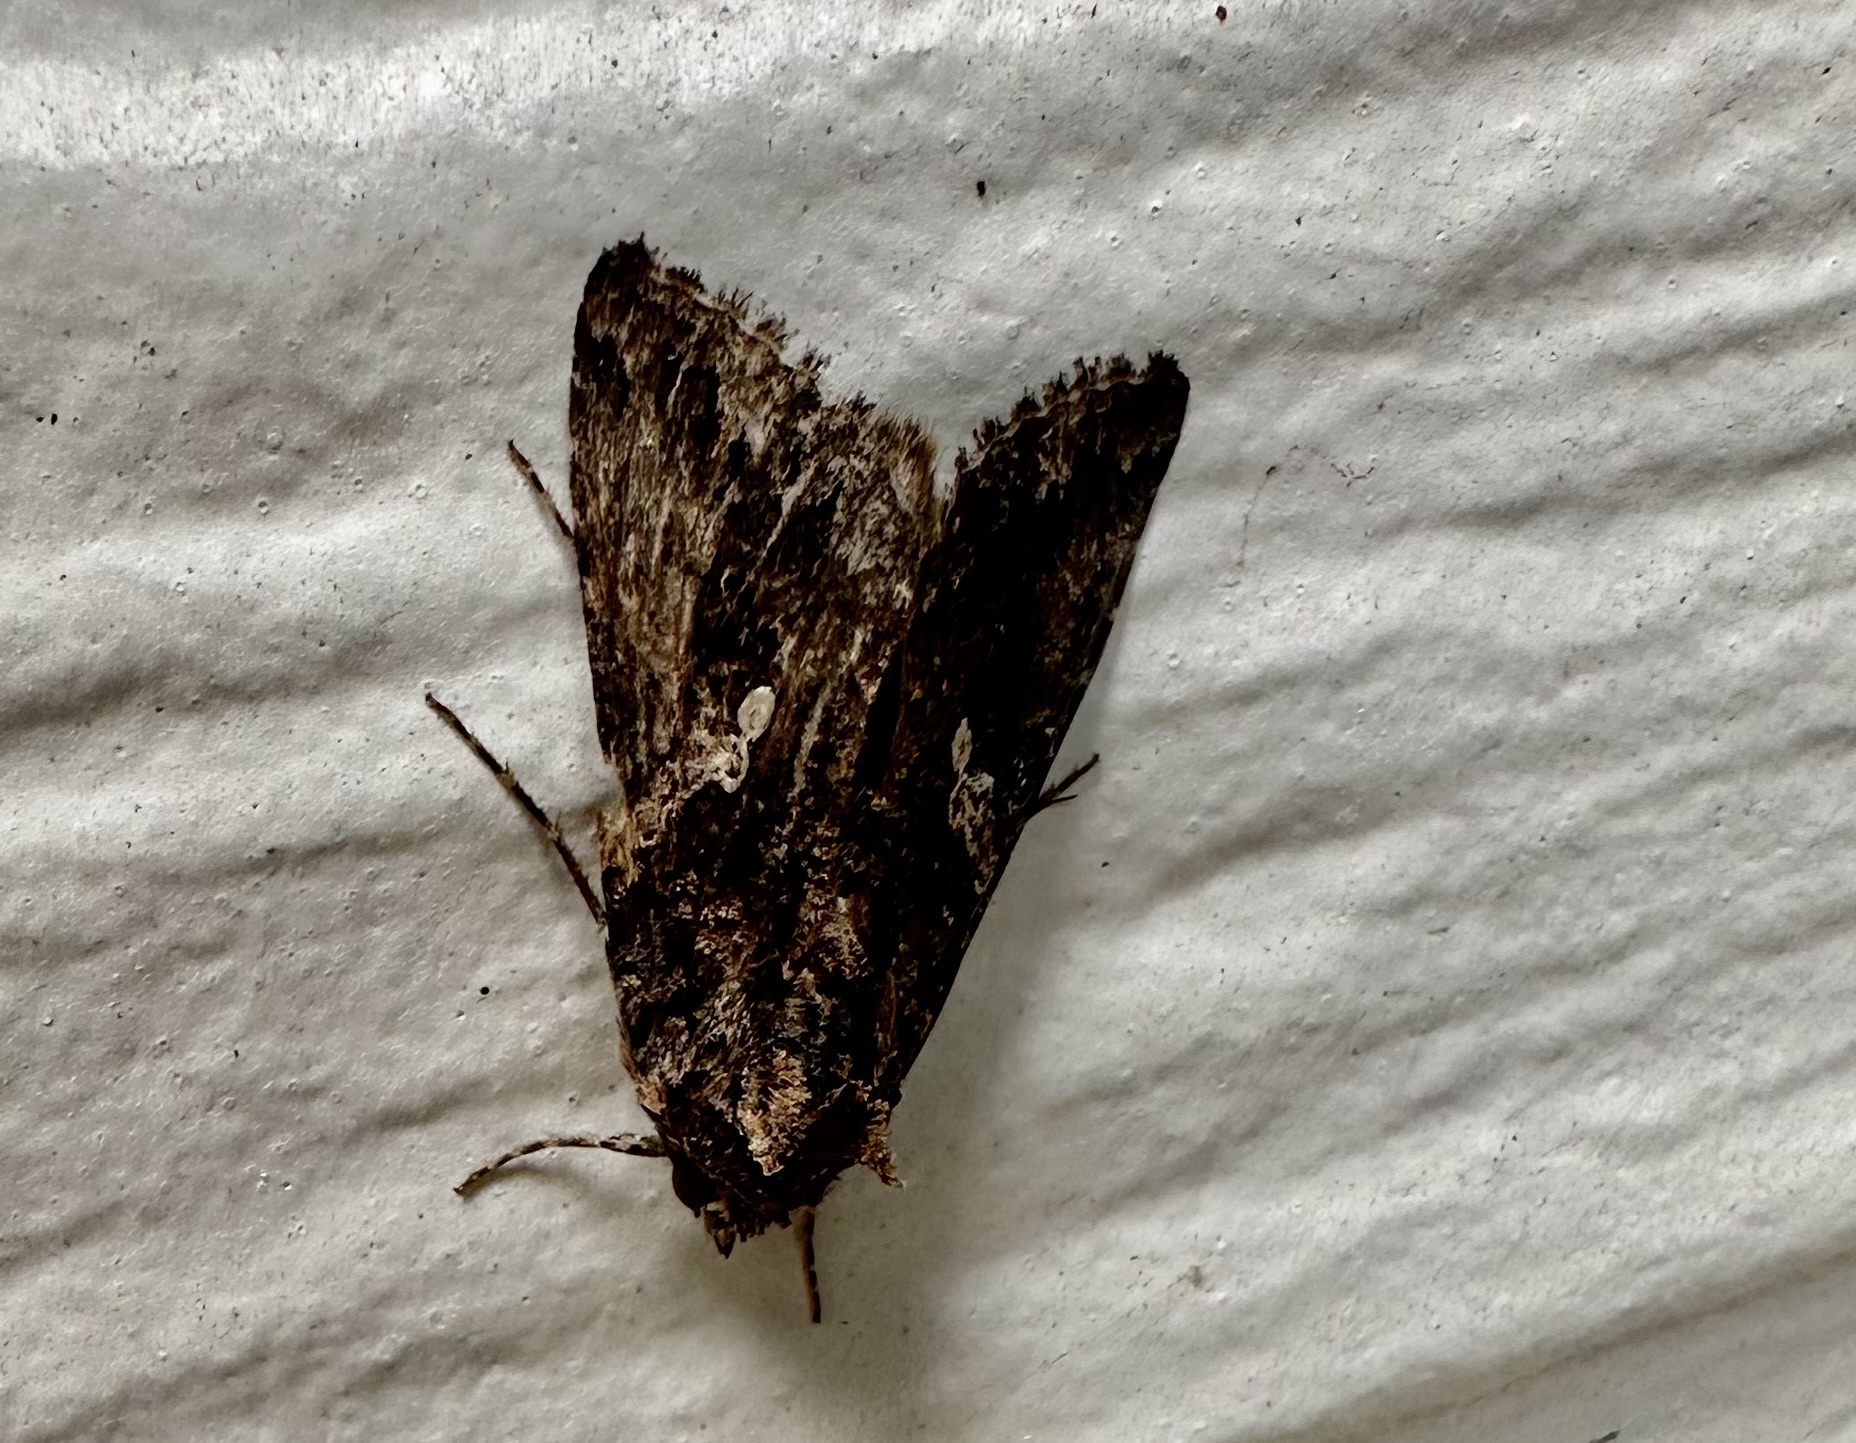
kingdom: Animalia
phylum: Arthropoda
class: Insecta
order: Lepidoptera
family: Noctuidae
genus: Trichoplusia
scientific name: Trichoplusia ni
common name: Ni moth
